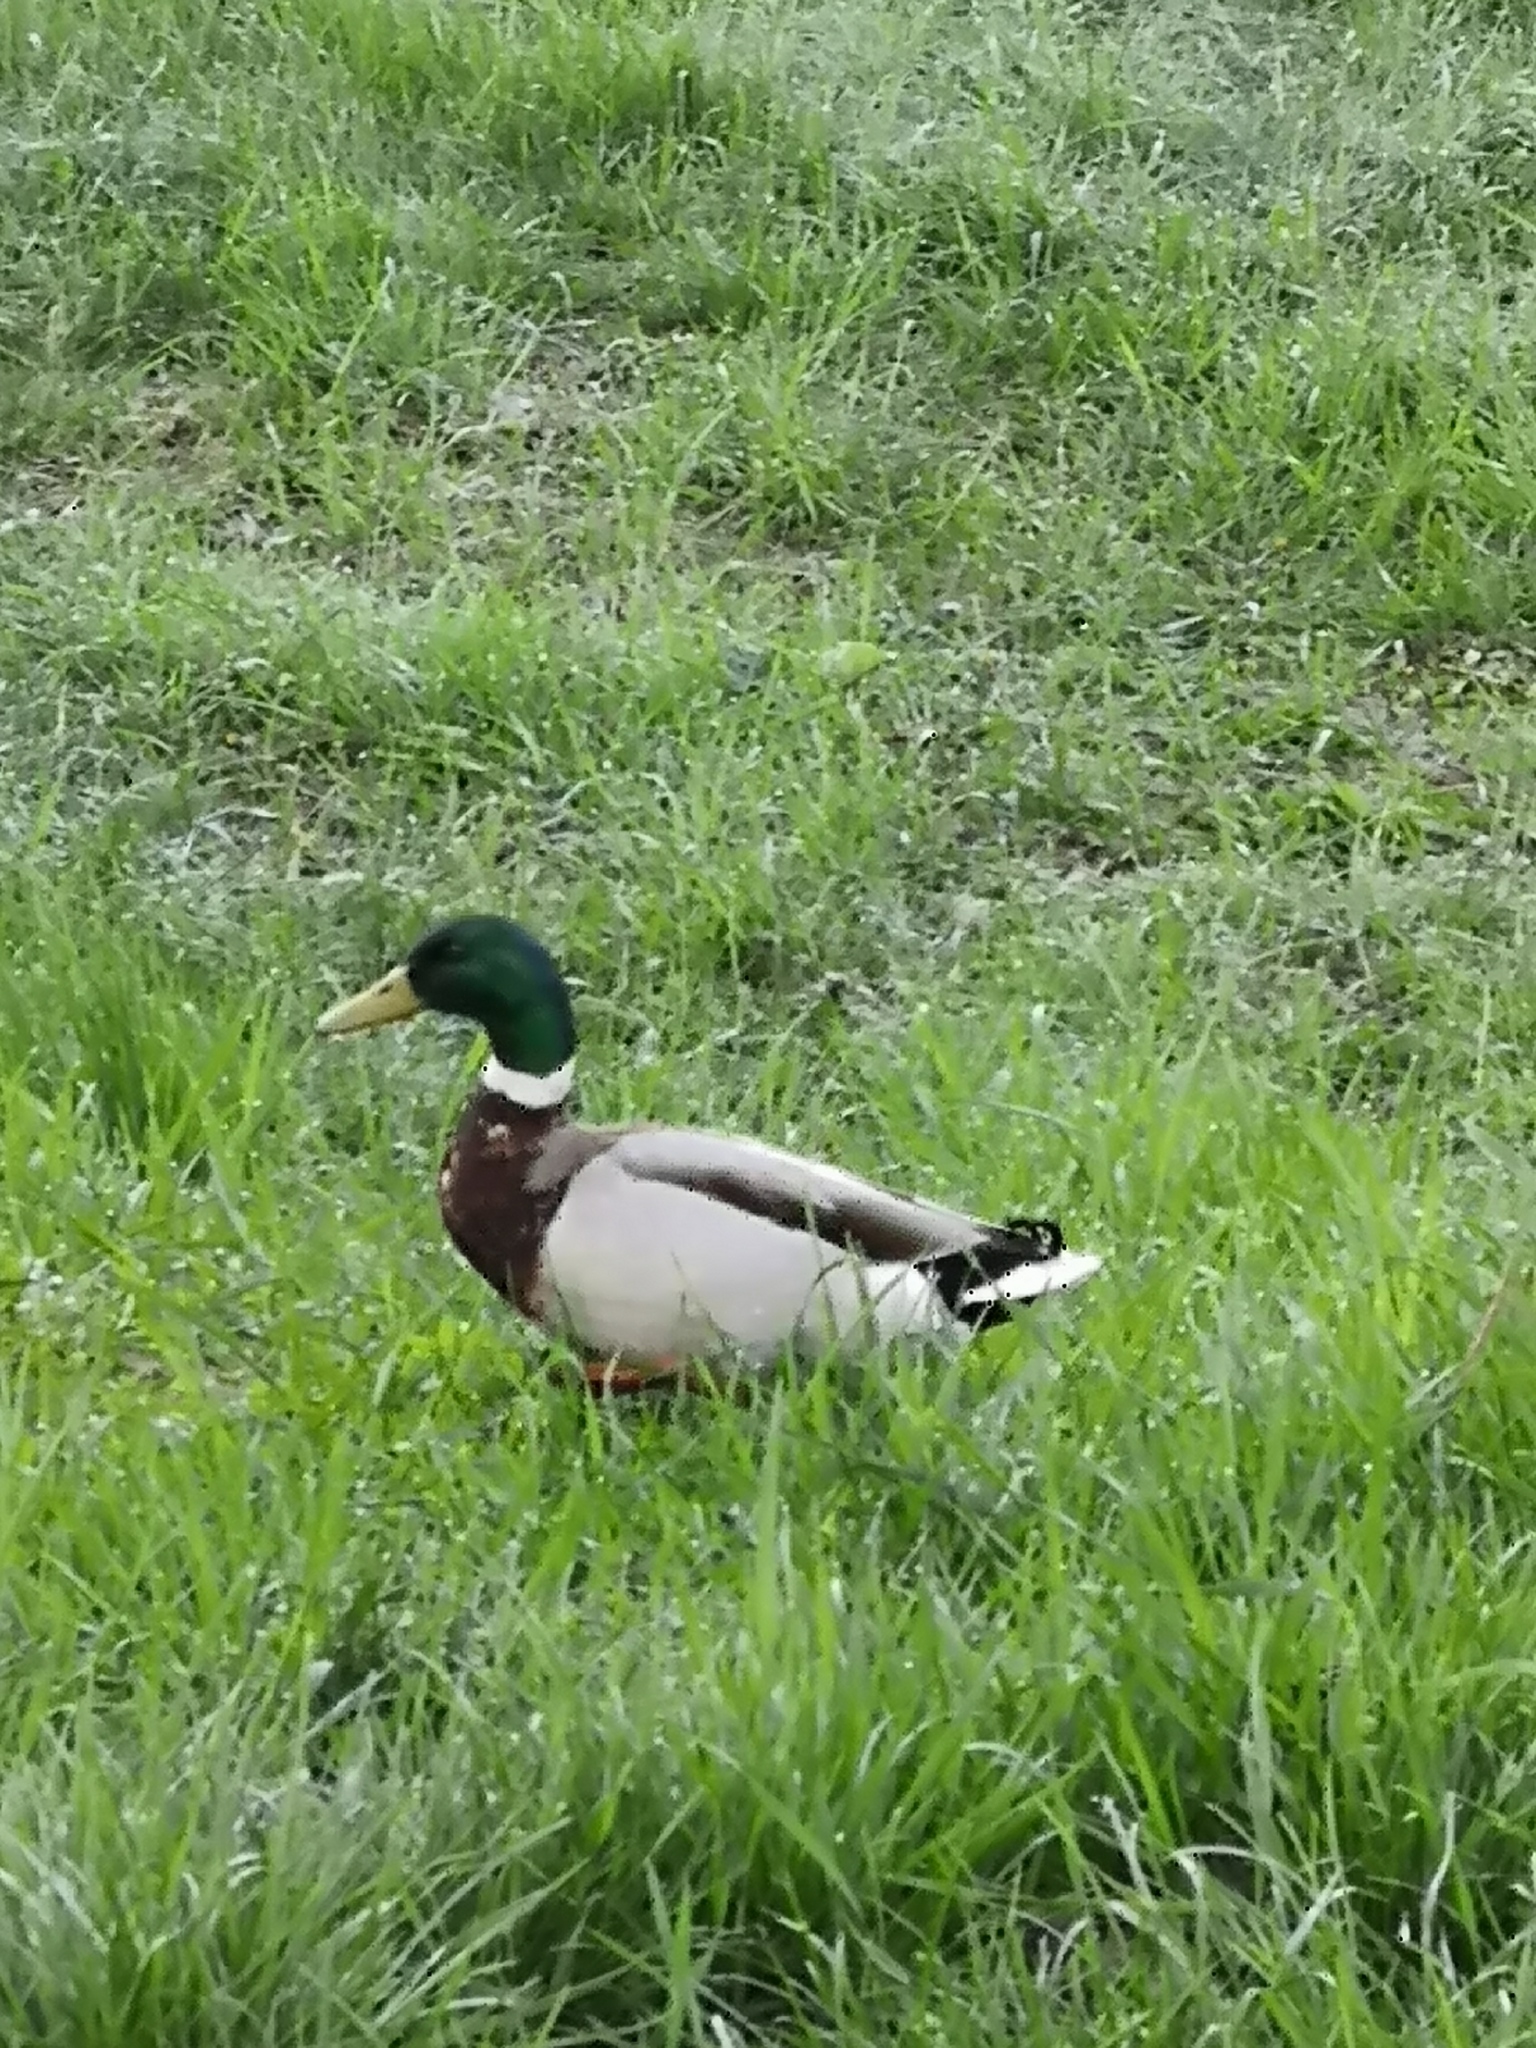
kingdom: Animalia
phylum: Chordata
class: Aves
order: Anseriformes
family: Anatidae
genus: Anas
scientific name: Anas platyrhynchos
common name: Mallard
